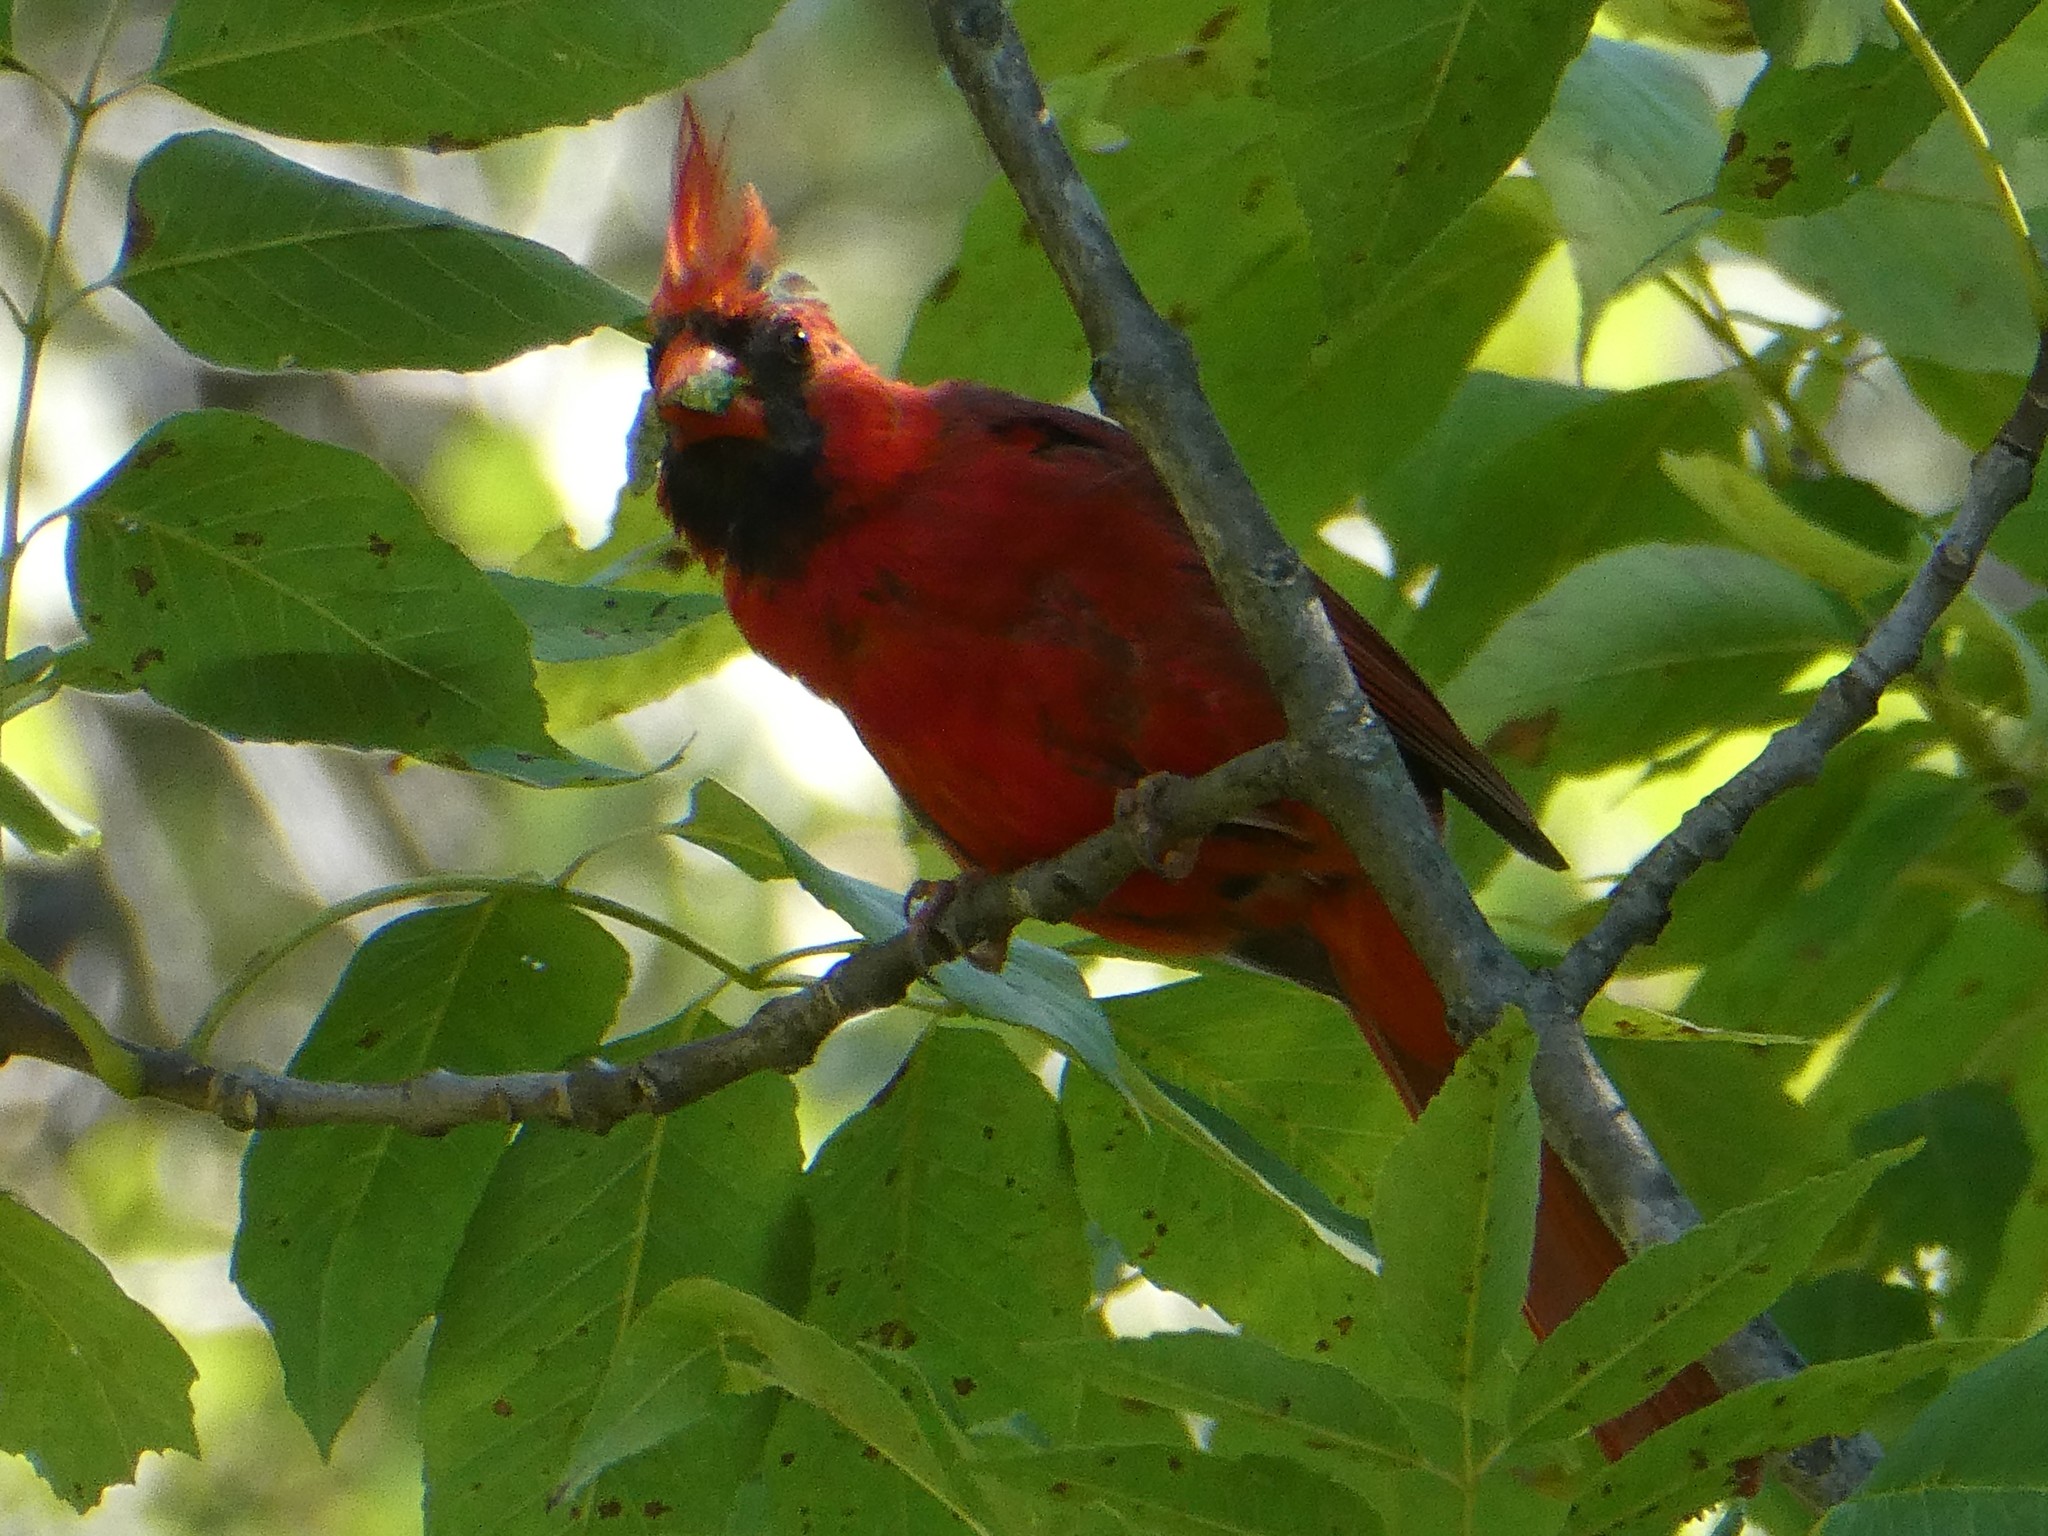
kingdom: Animalia
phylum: Chordata
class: Aves
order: Passeriformes
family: Cardinalidae
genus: Cardinalis
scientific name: Cardinalis cardinalis
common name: Northern cardinal
